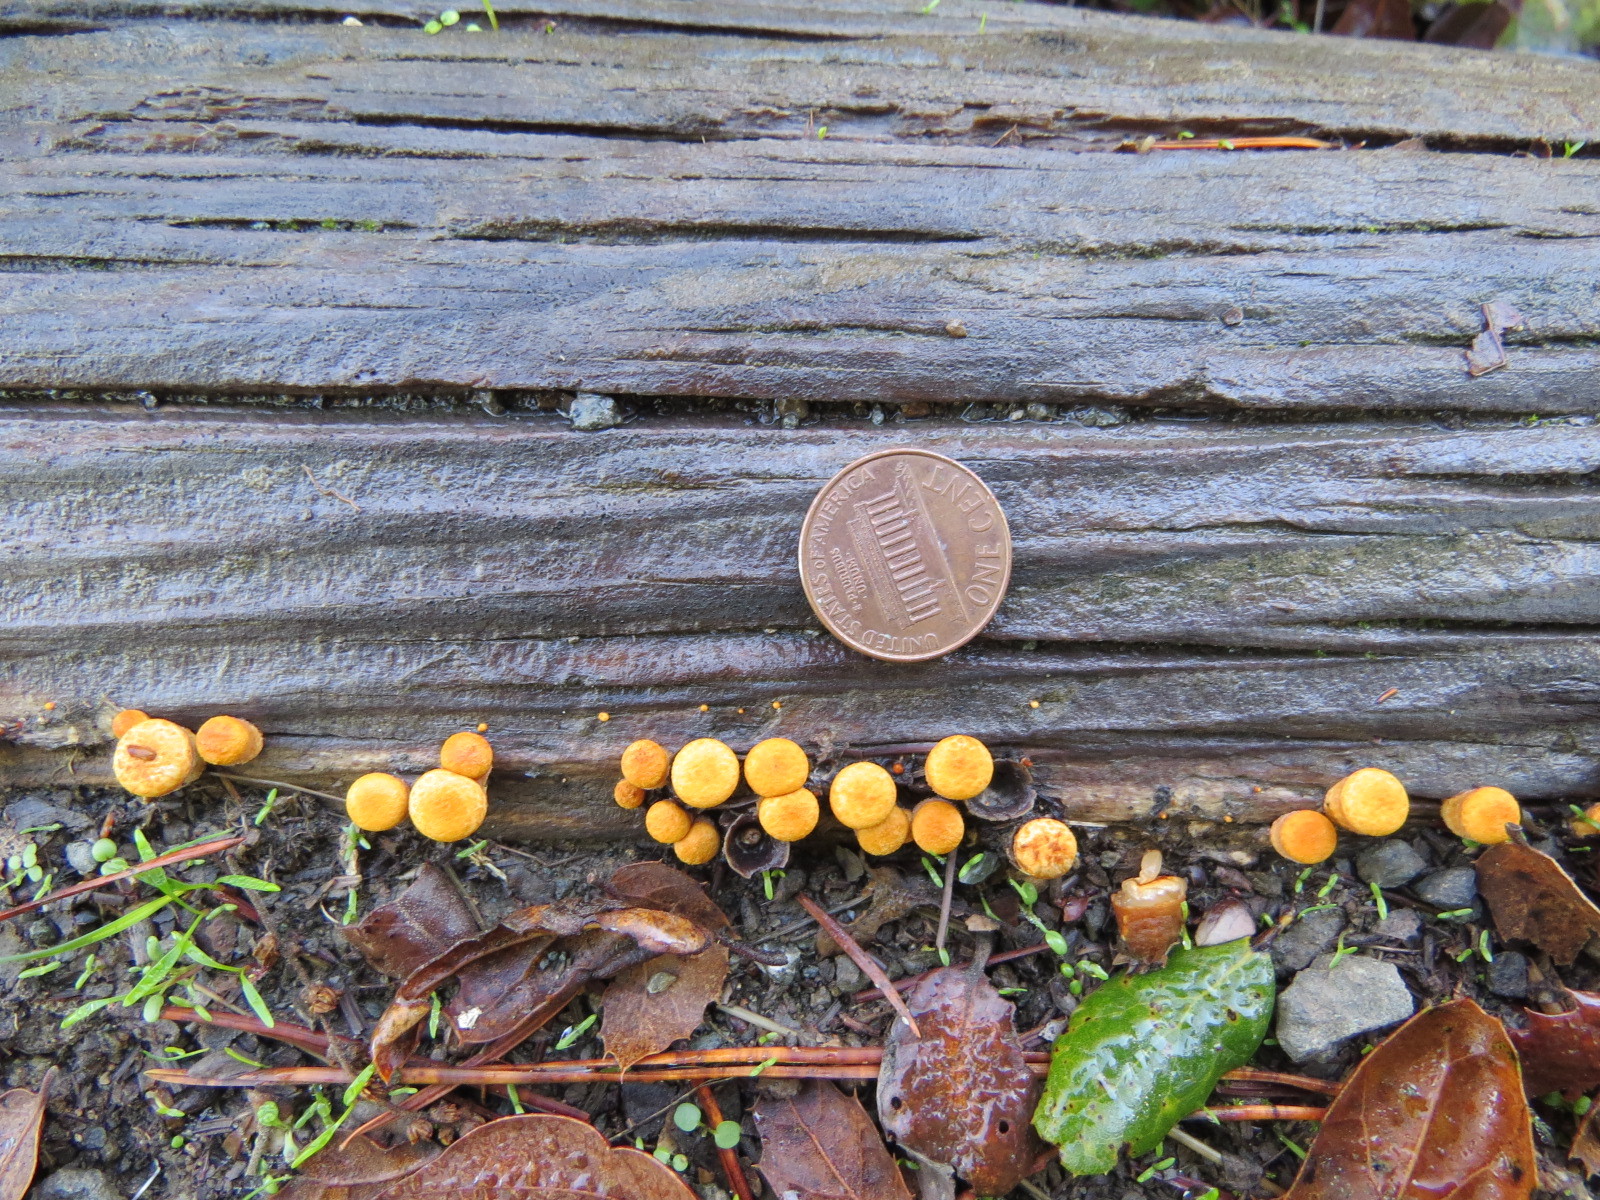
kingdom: Fungi
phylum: Basidiomycota
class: Agaricomycetes
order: Agaricales
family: Nidulariaceae
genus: Crucibulum
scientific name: Crucibulum laeve
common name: Common bird's nest
